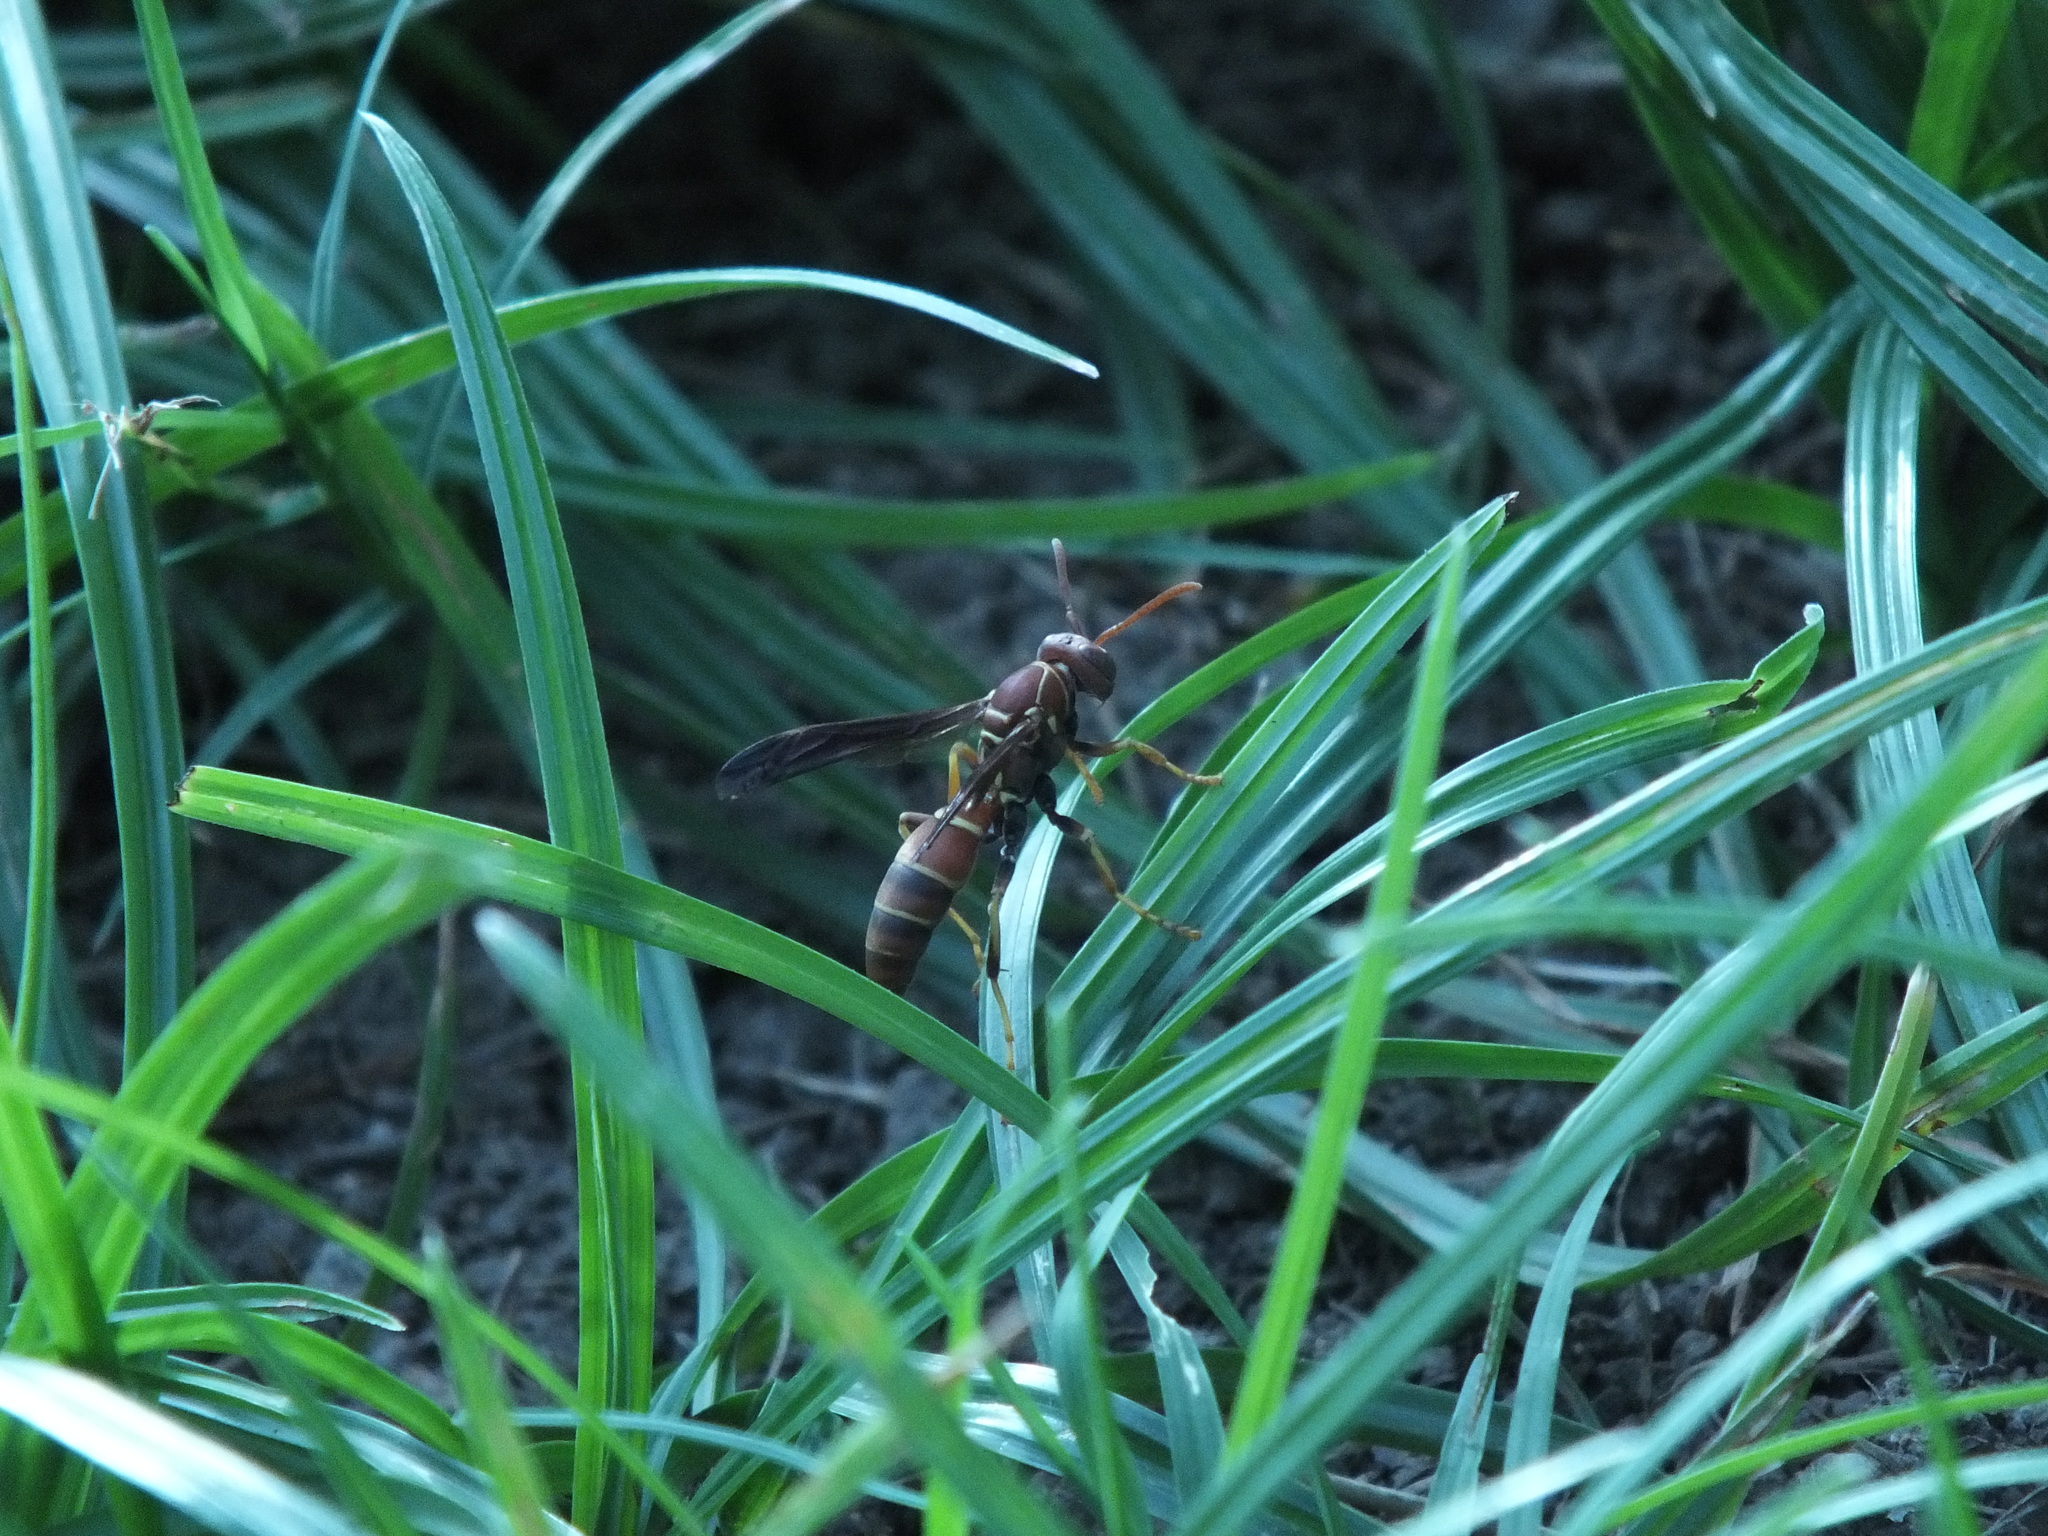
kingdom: Animalia
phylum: Arthropoda
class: Insecta
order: Hymenoptera
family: Eumenidae
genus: Polistes
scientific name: Polistes dorsalis
